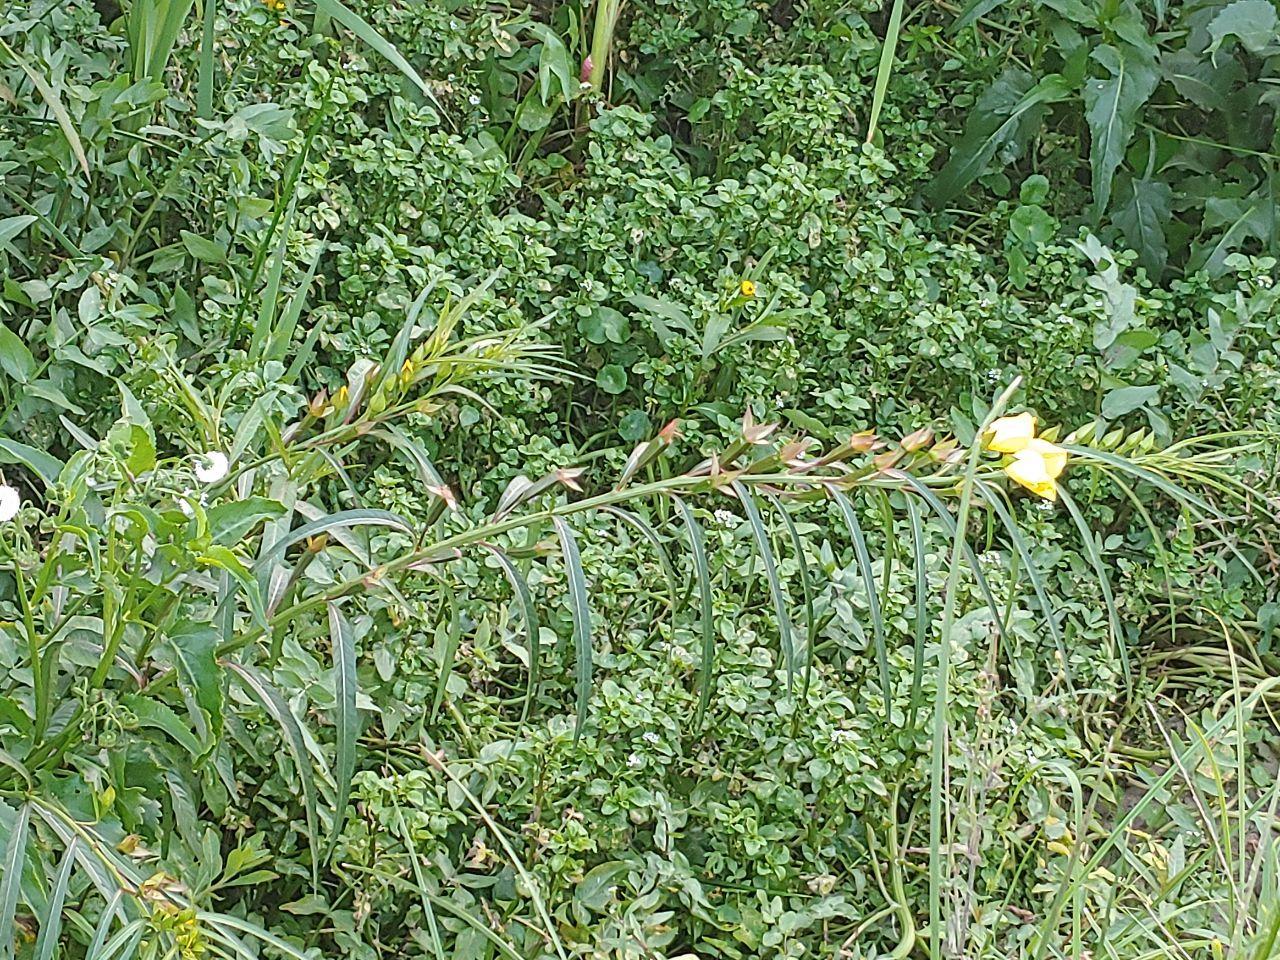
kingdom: Plantae
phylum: Tracheophyta
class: Magnoliopsida
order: Myrtales
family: Onagraceae
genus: Ludwigia
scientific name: Ludwigia longifolia
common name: Longleaf primrose-willow
